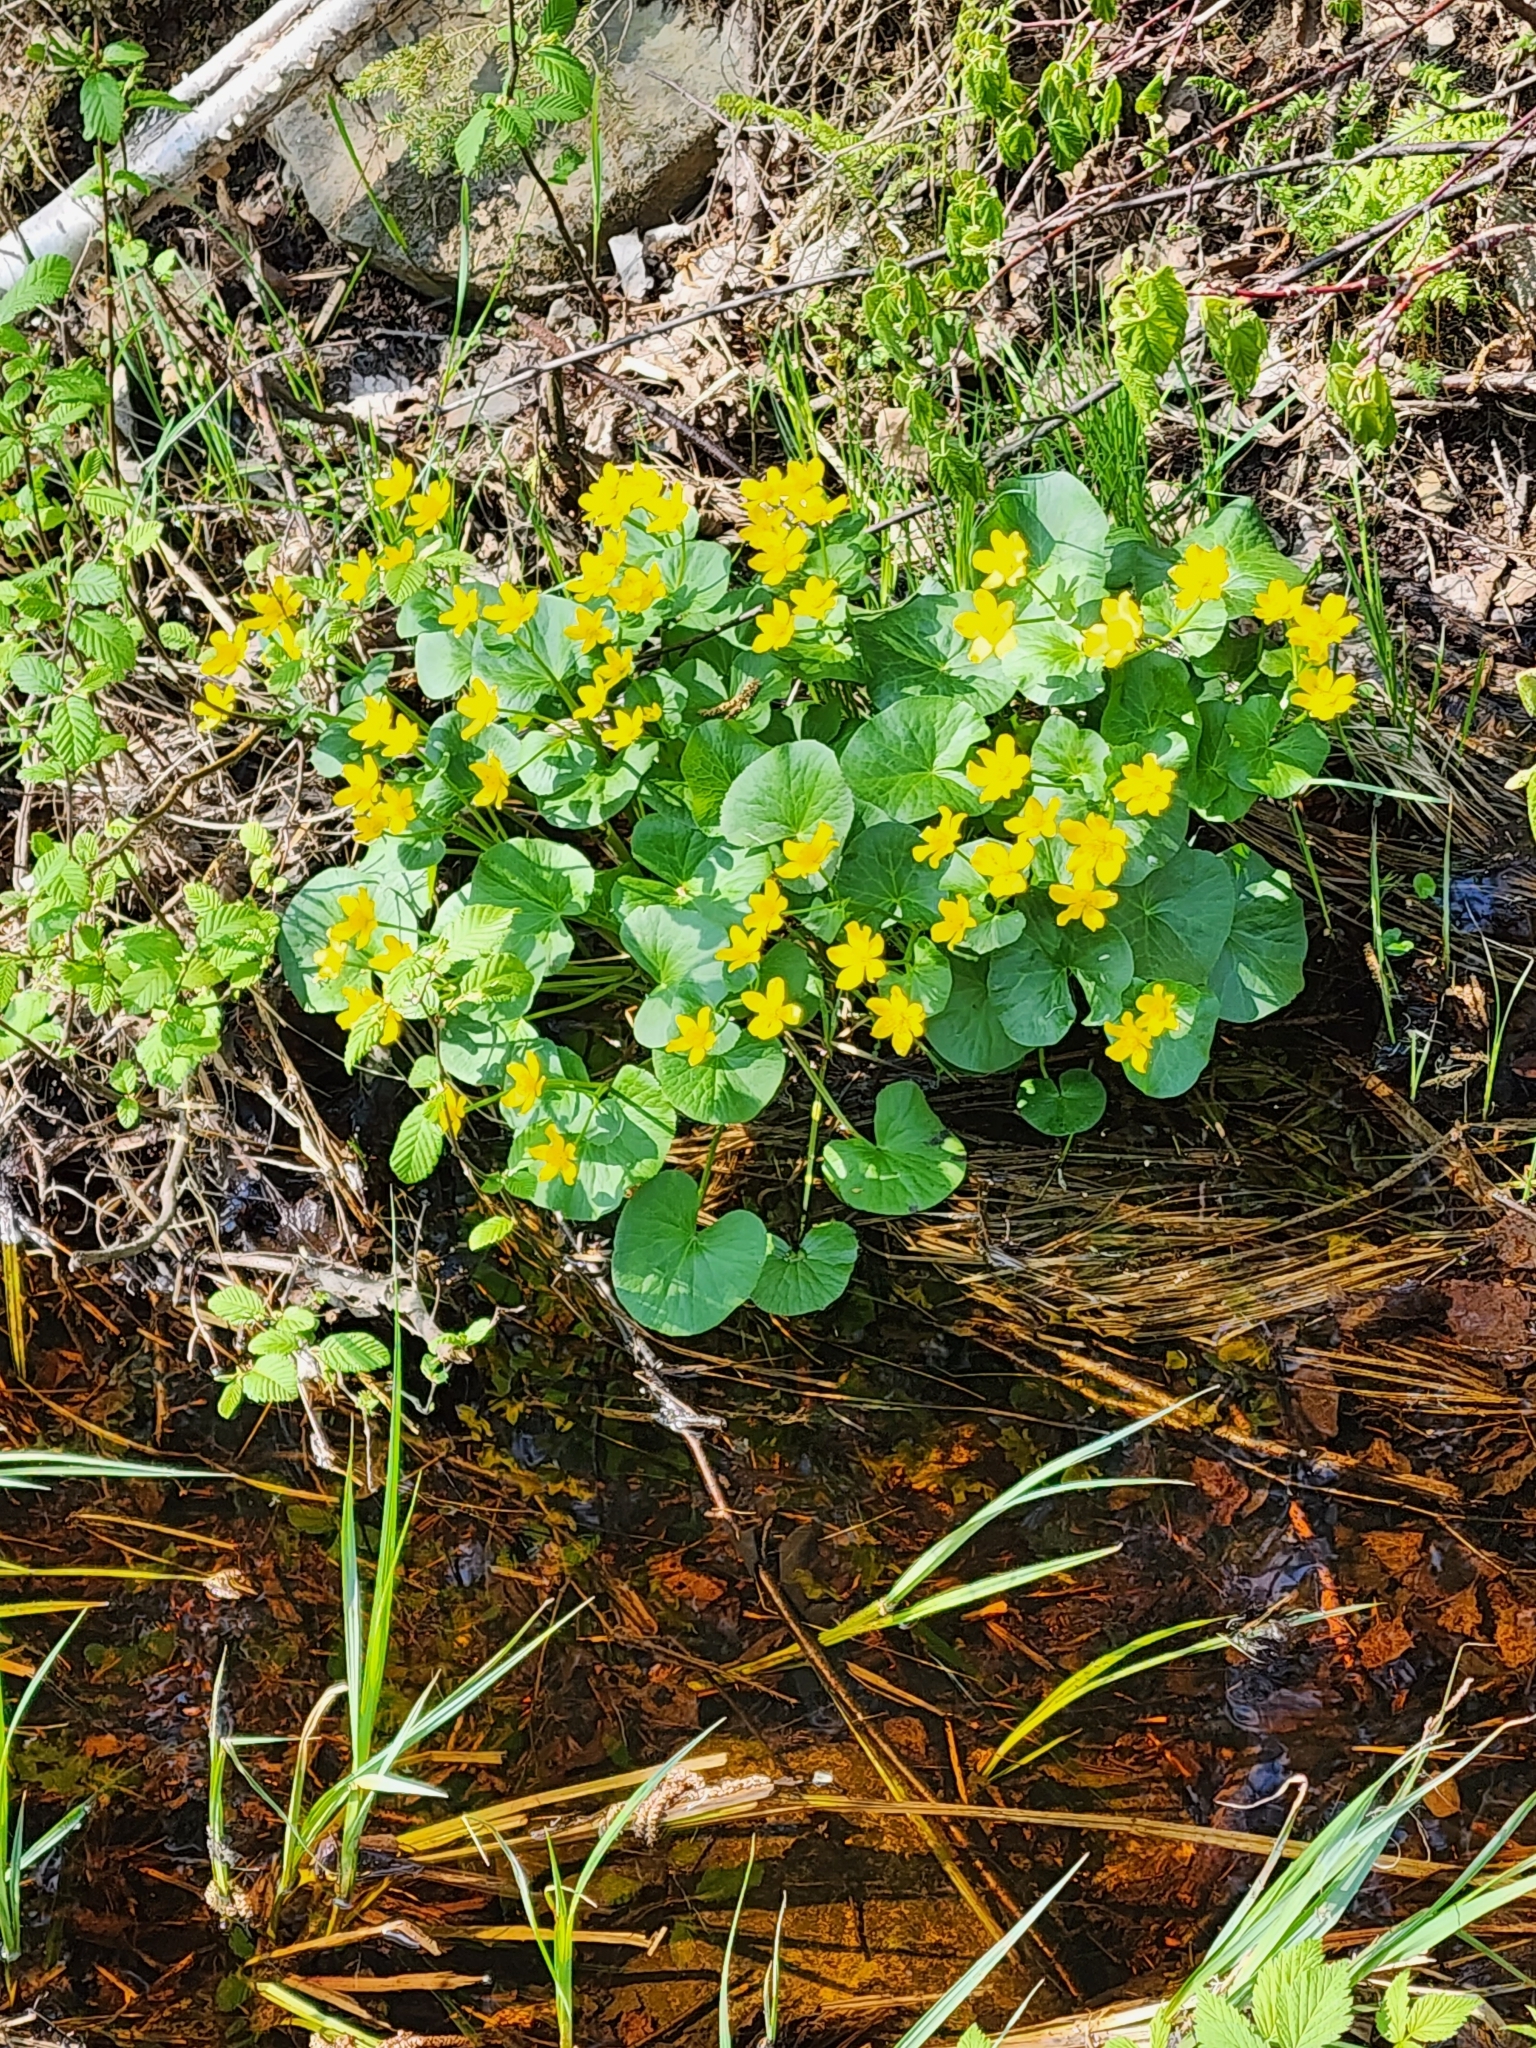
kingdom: Plantae
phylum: Tracheophyta
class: Magnoliopsida
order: Ranunculales
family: Ranunculaceae
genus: Caltha
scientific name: Caltha palustris
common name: Marsh marigold
